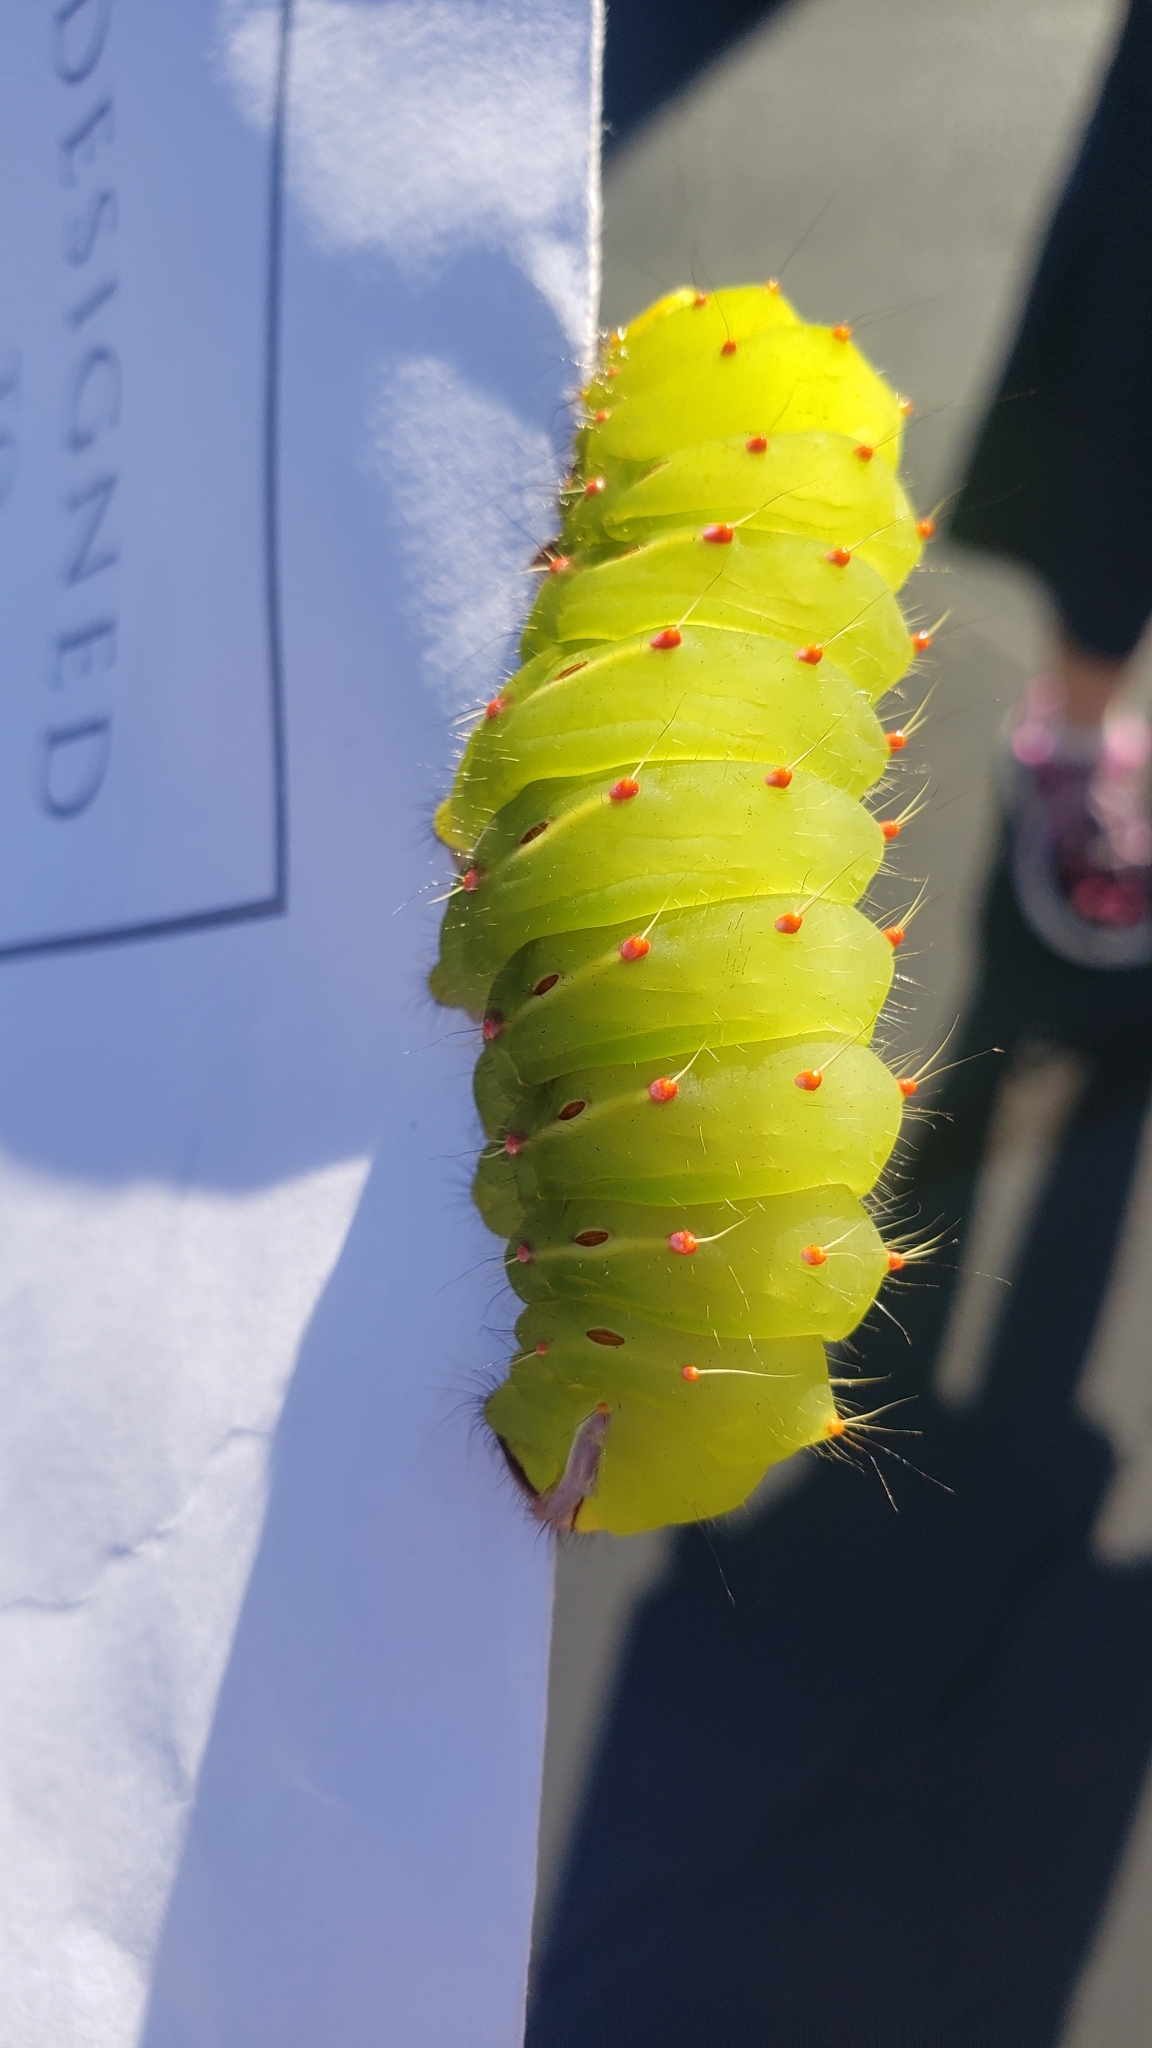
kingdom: Animalia
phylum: Arthropoda
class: Insecta
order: Lepidoptera
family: Saturniidae
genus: Antheraea
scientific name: Antheraea polyphemus
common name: Polyphemus moth
